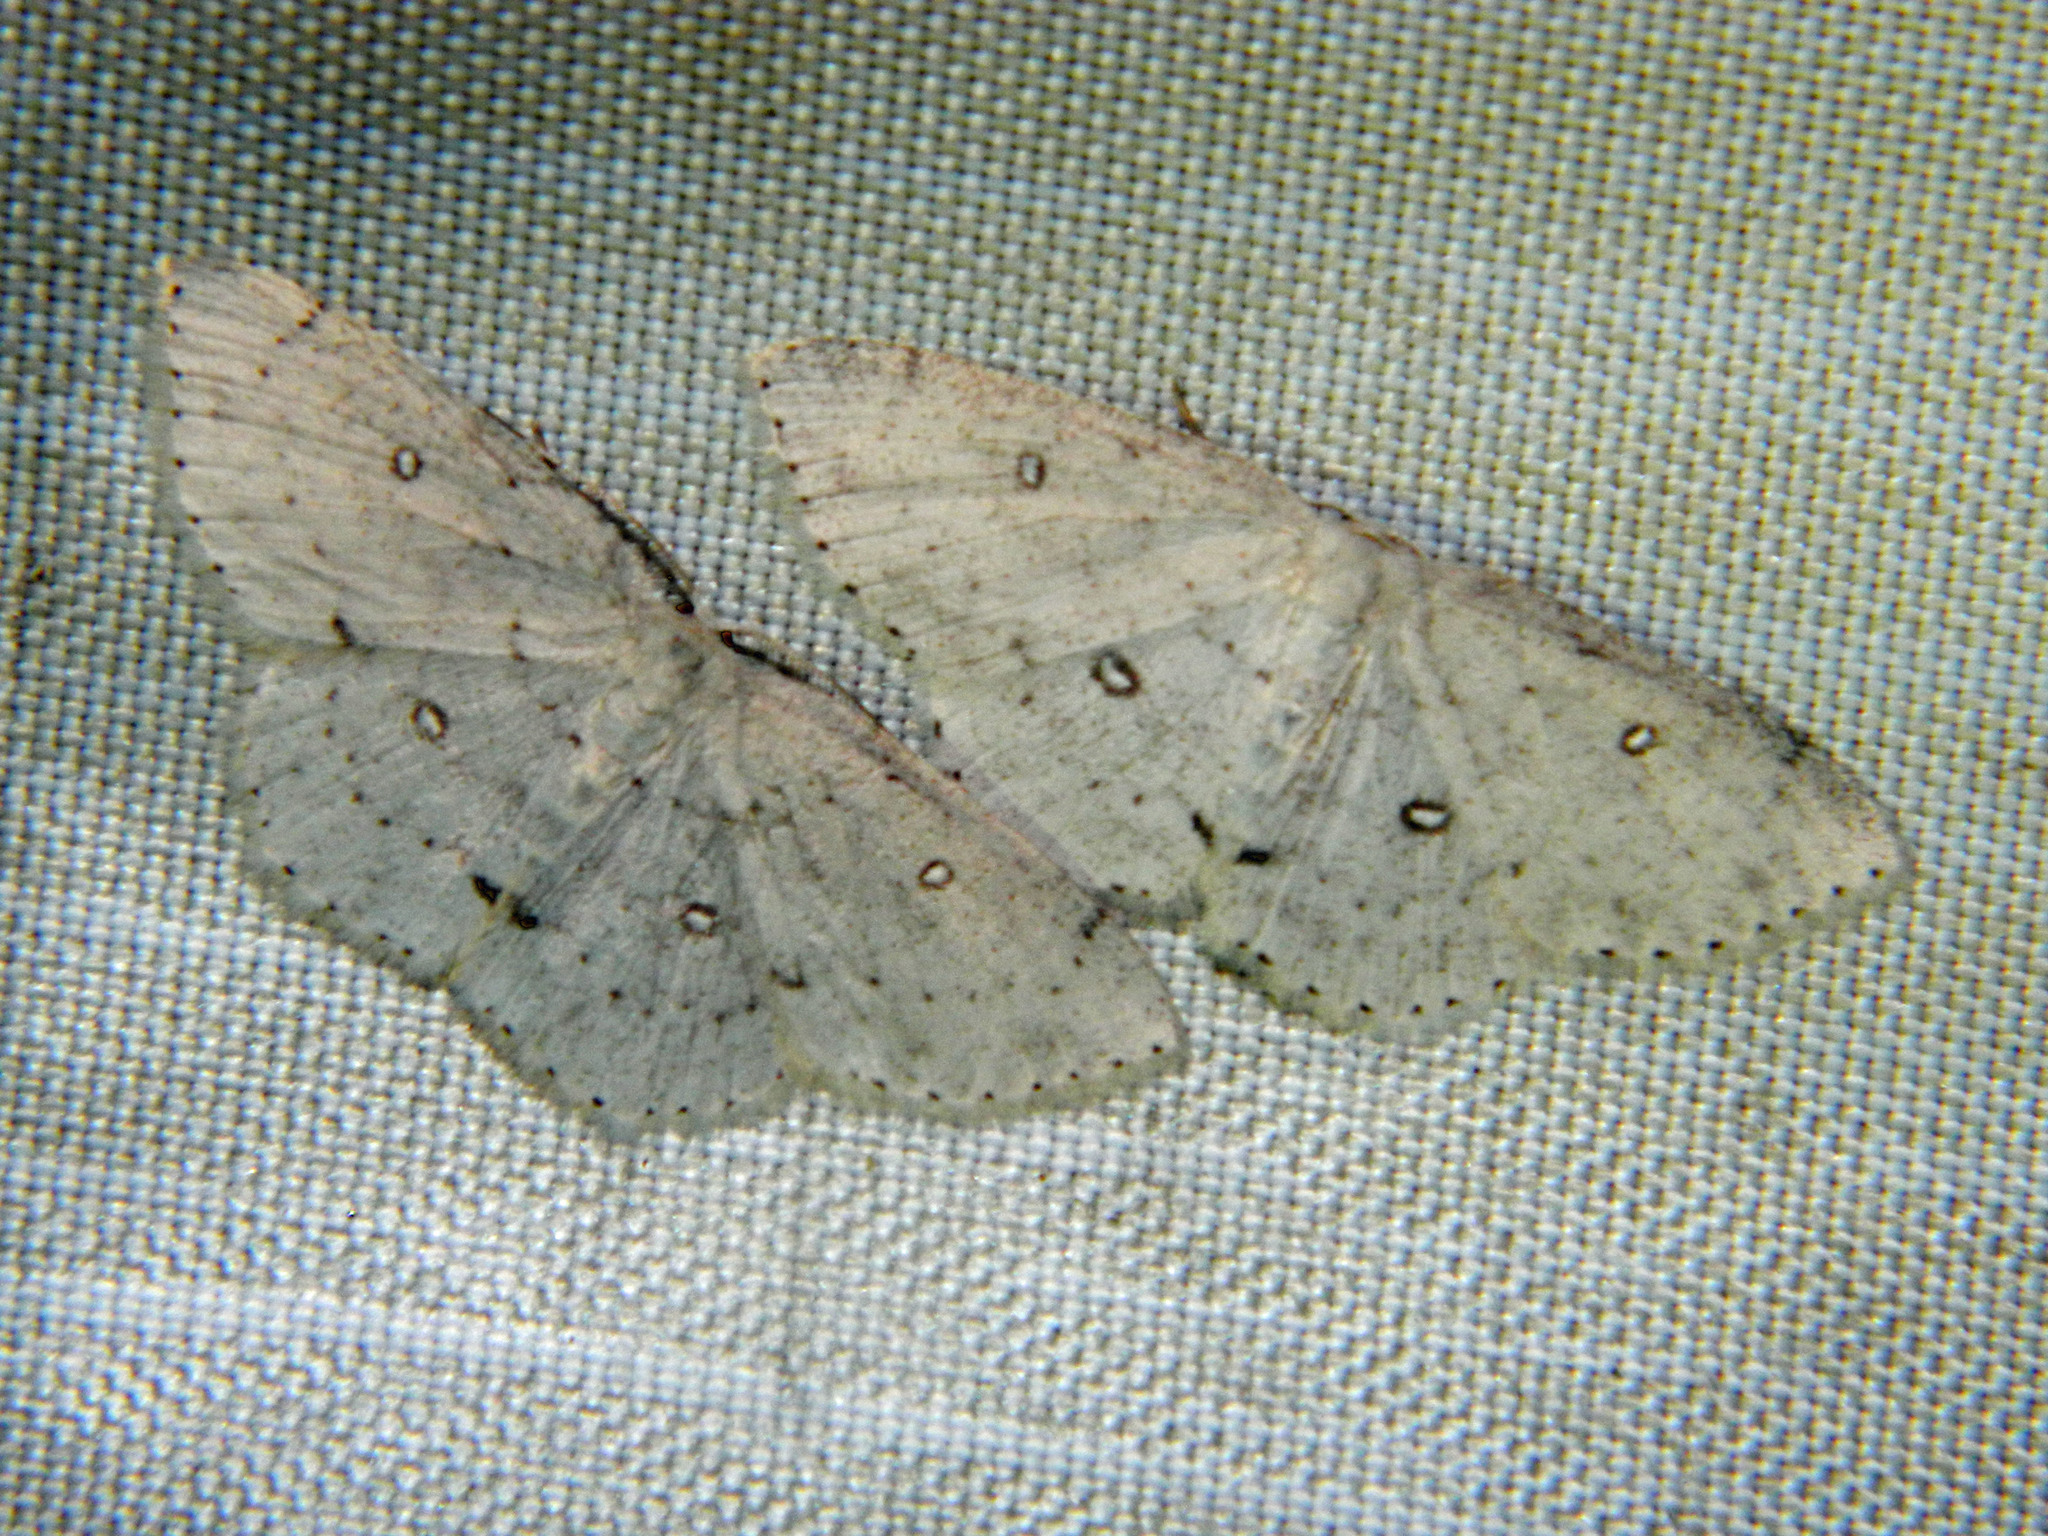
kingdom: Animalia
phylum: Arthropoda
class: Insecta
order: Lepidoptera
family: Geometridae
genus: Cyclophora
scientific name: Cyclophora pendulinaria
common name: Sweet fern geometer
